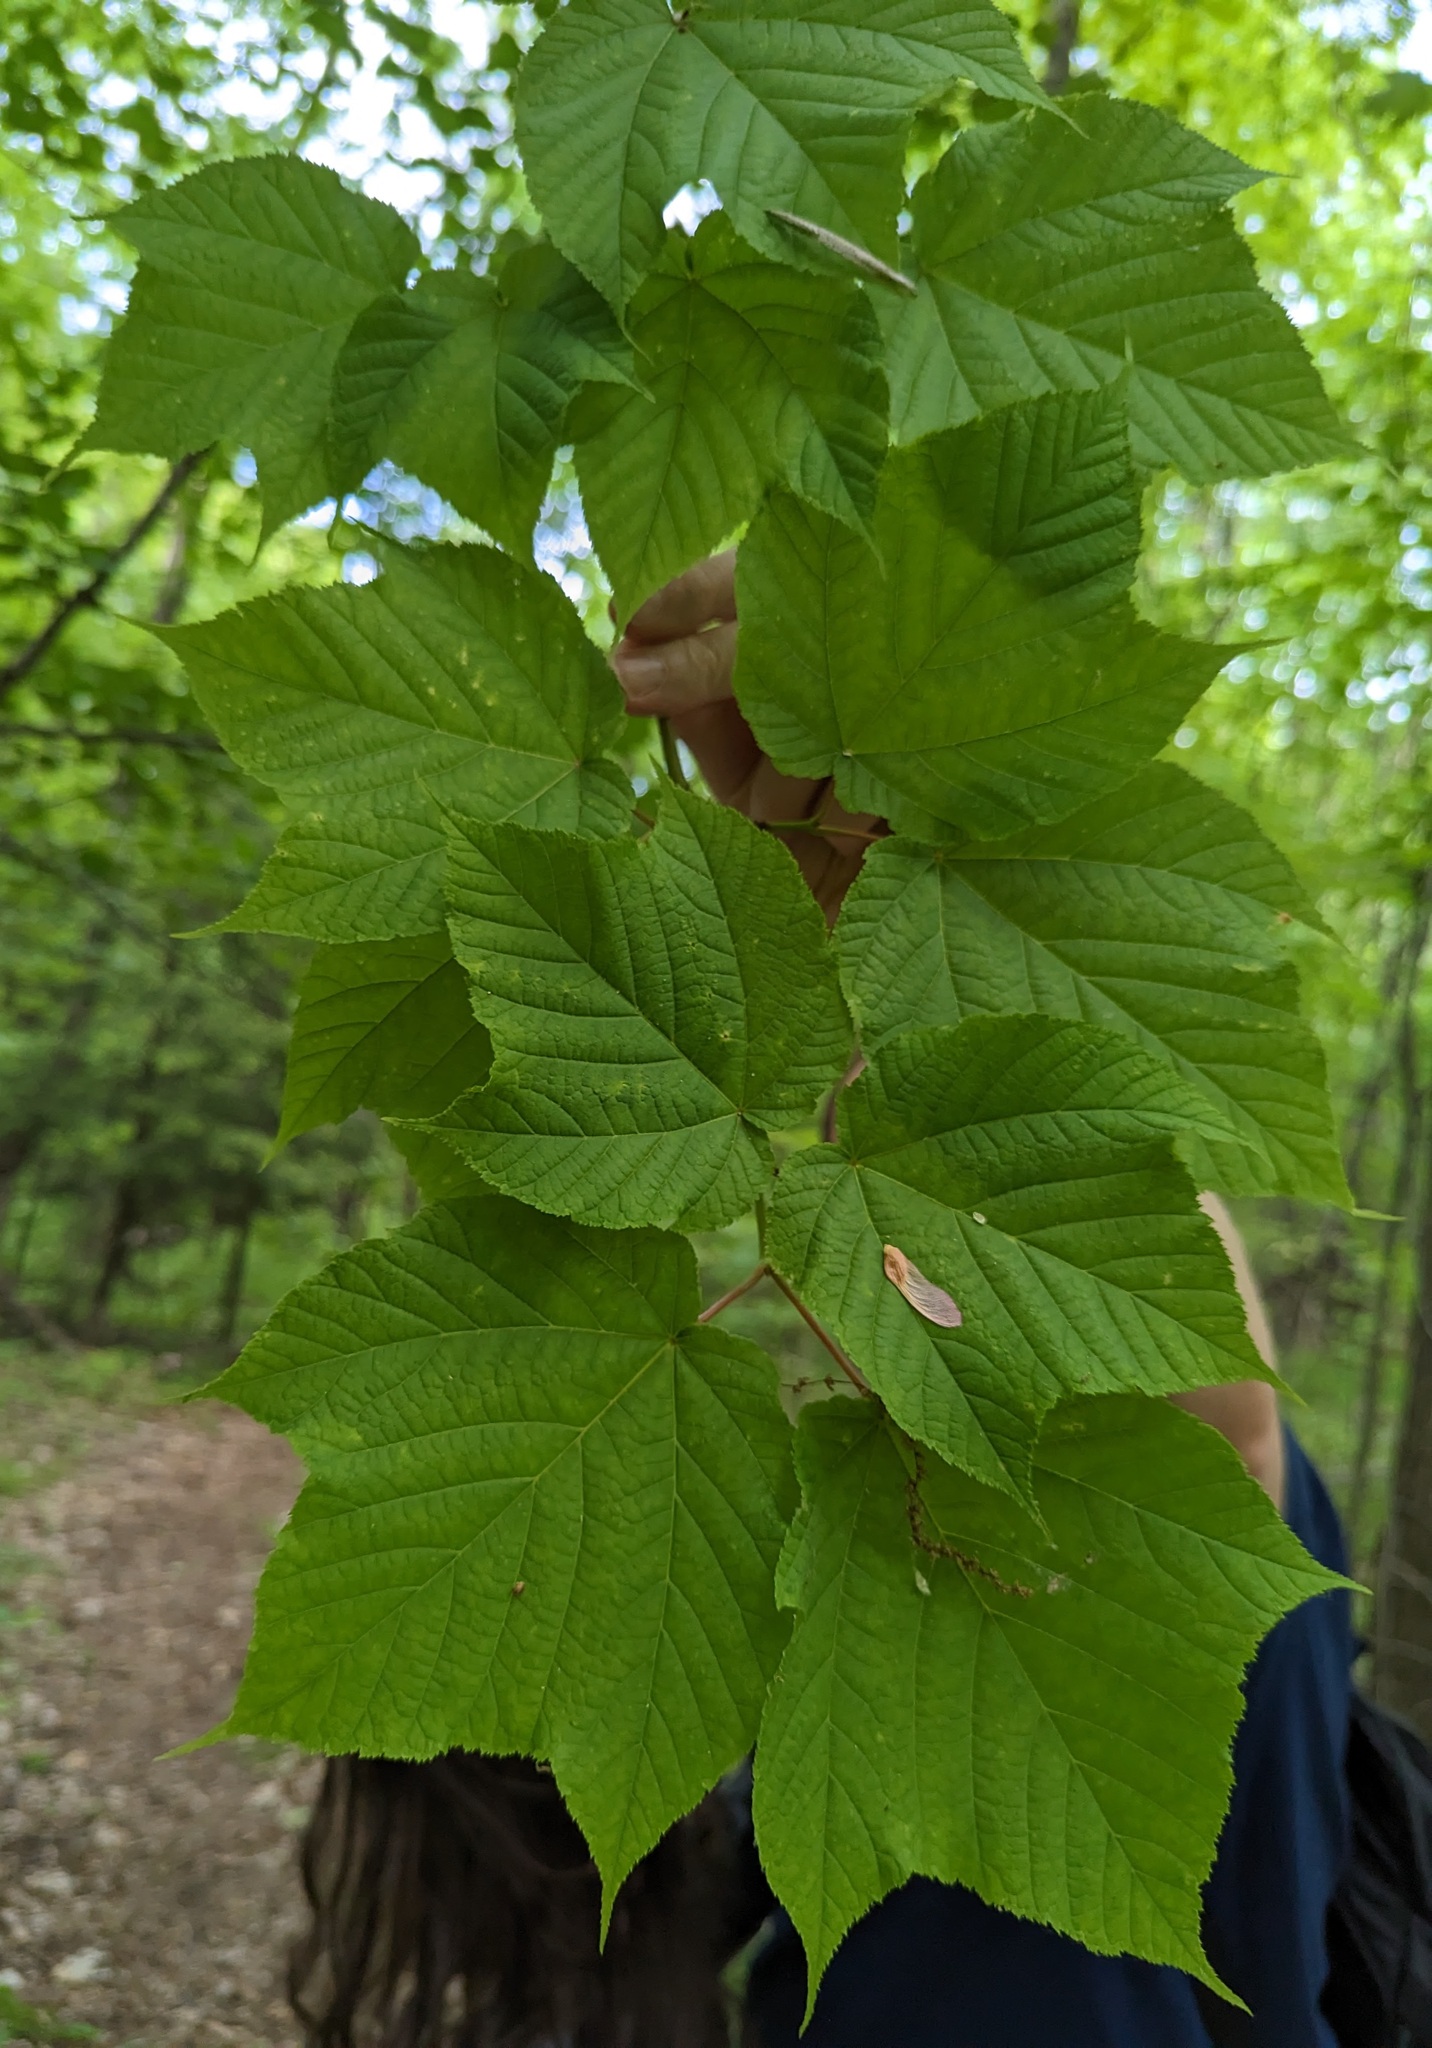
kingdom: Plantae
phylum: Tracheophyta
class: Magnoliopsida
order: Sapindales
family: Sapindaceae
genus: Acer
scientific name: Acer pensylvanicum
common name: Moosewood
